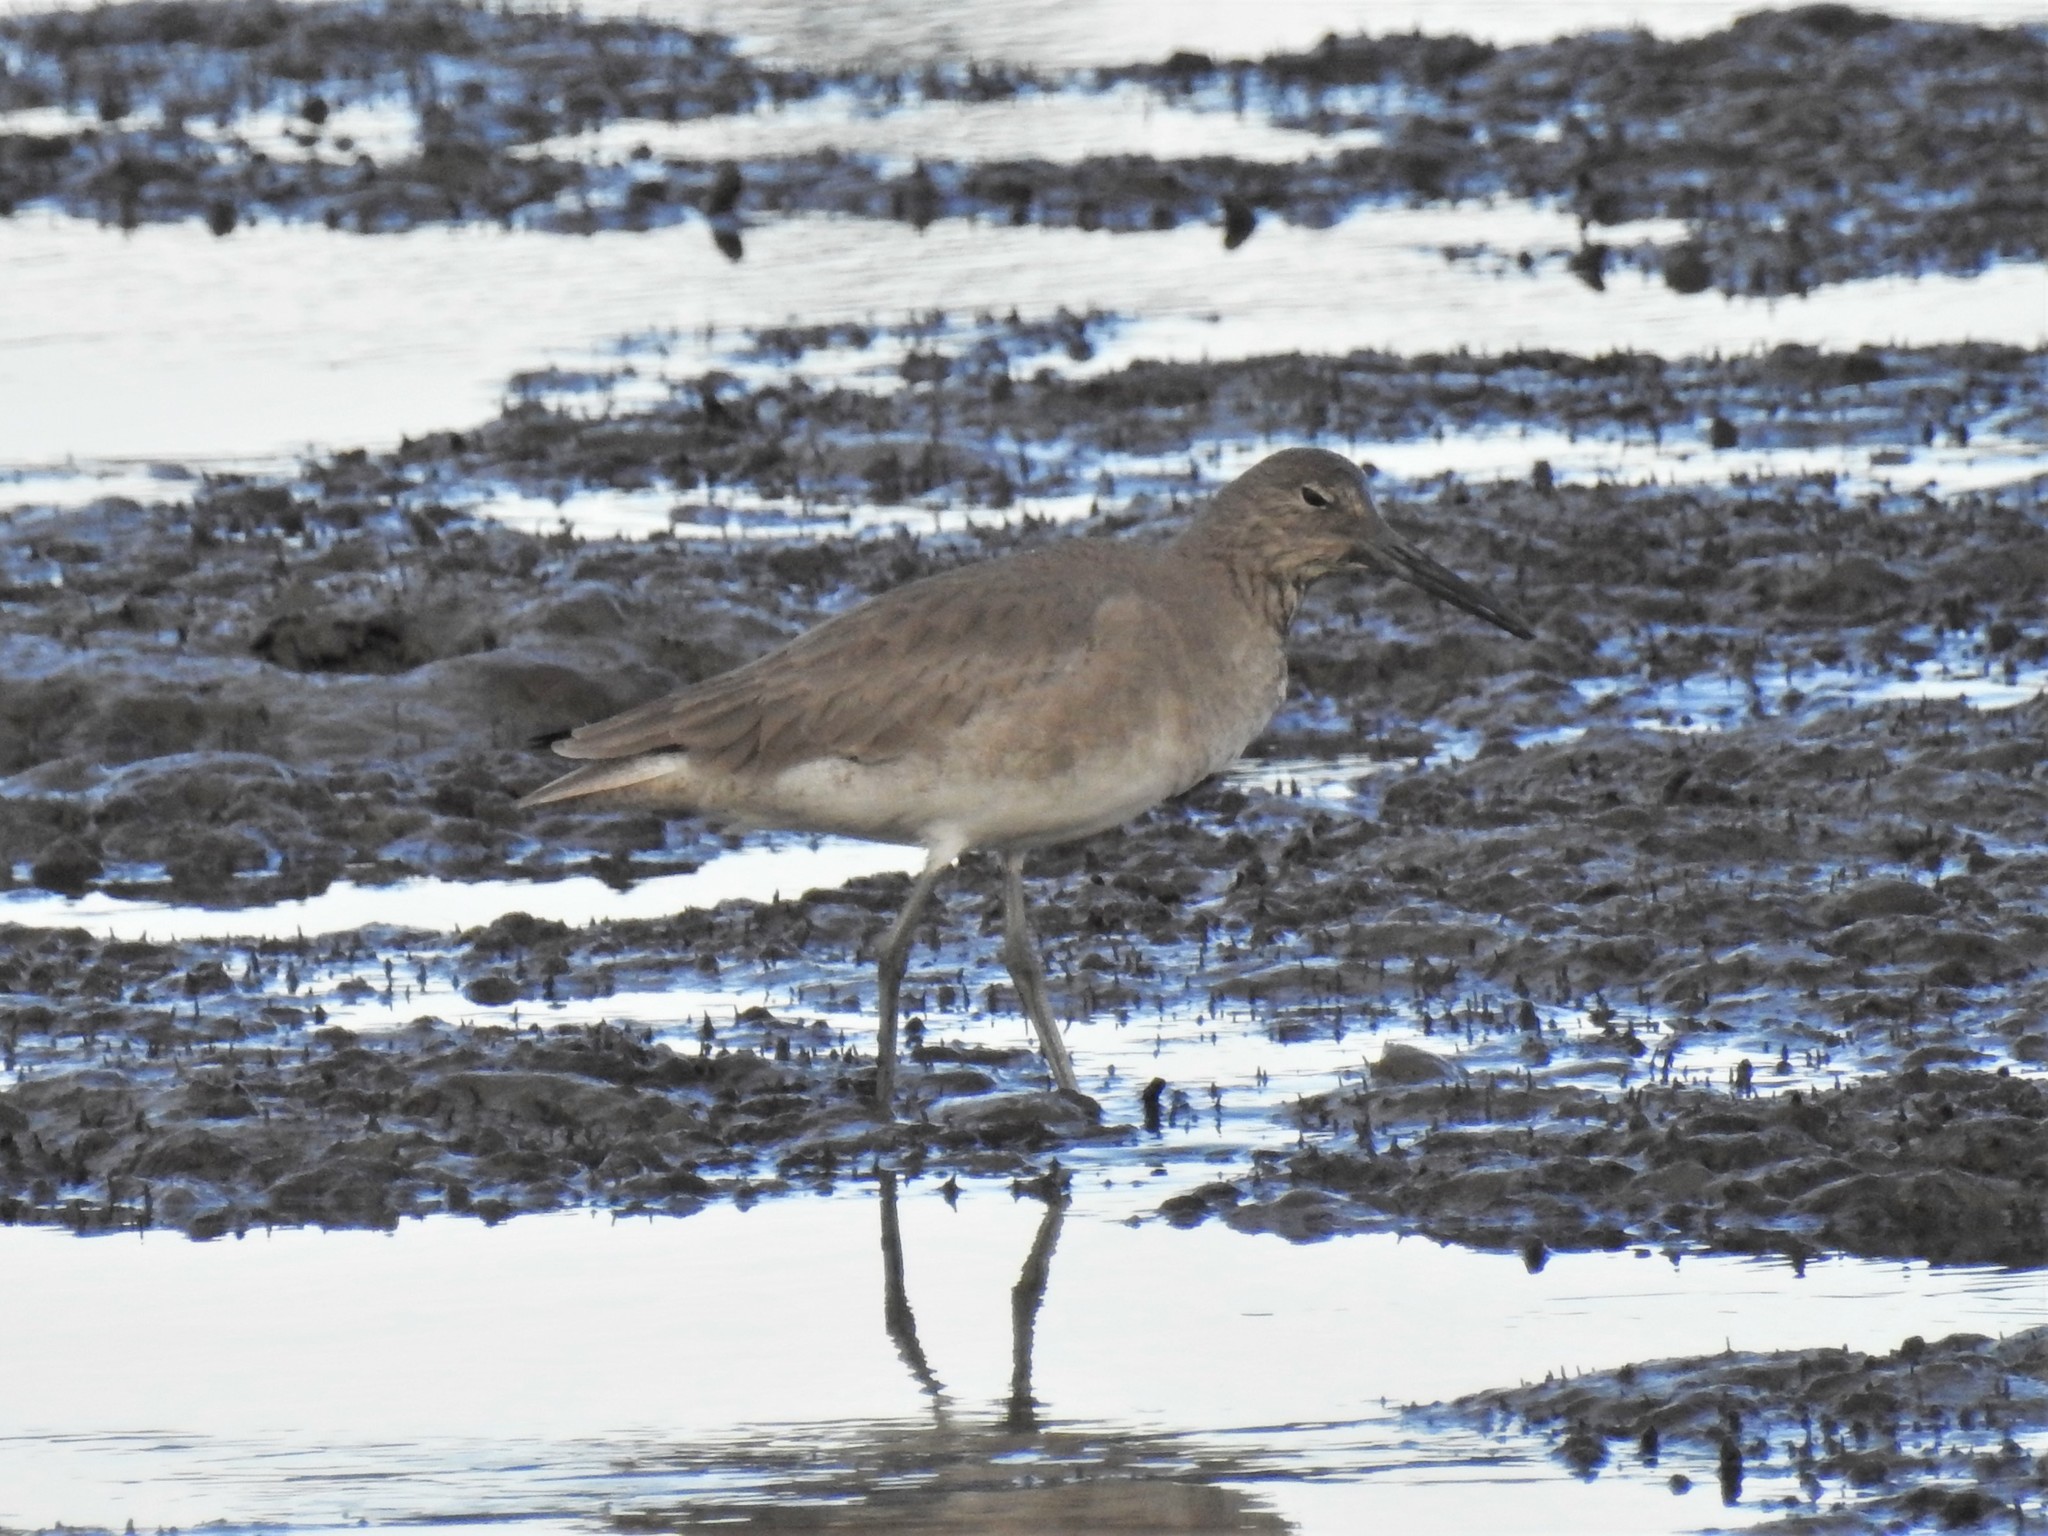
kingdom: Animalia
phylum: Chordata
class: Aves
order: Charadriiformes
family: Scolopacidae
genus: Tringa
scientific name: Tringa semipalmata
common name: Willet
